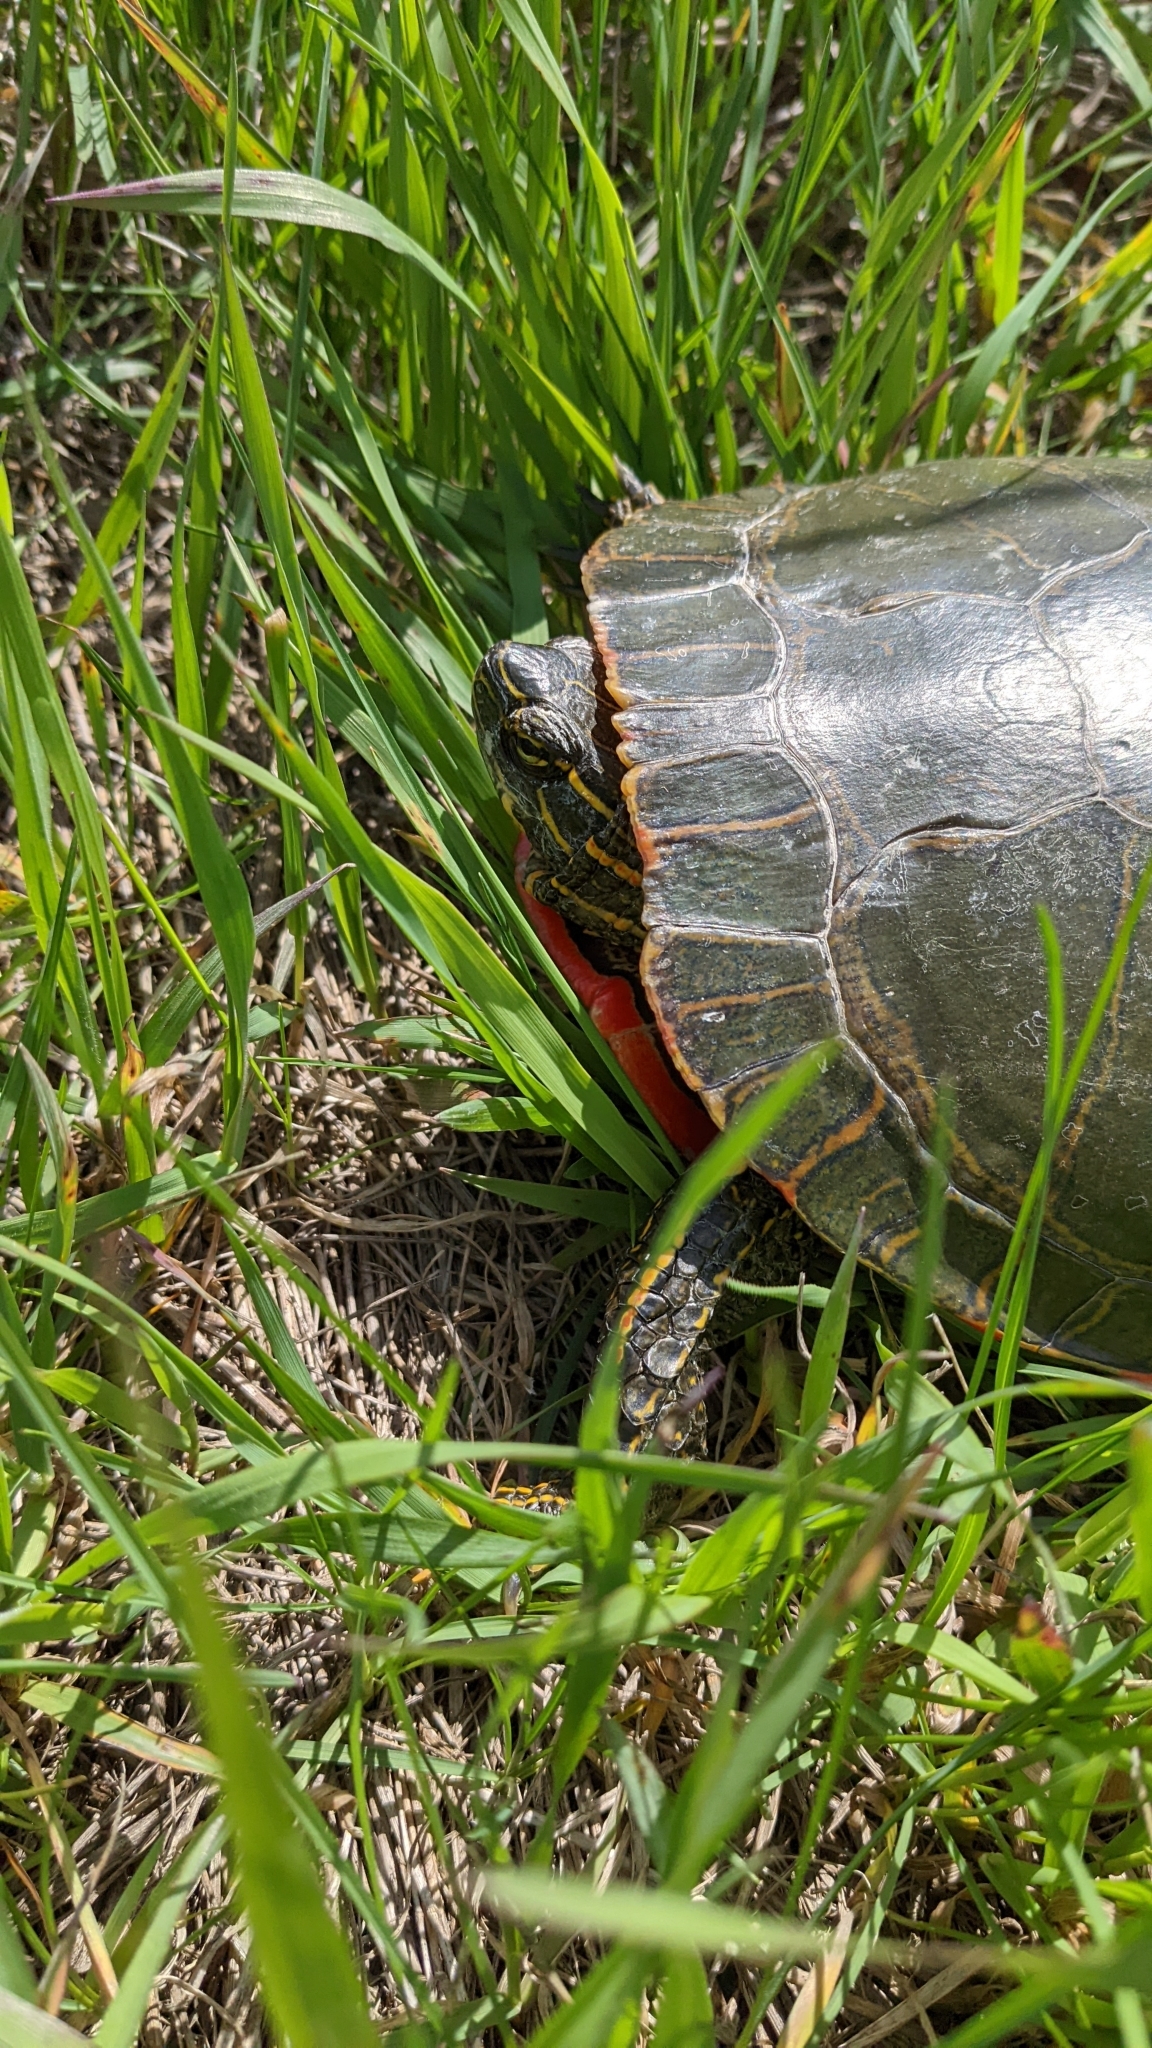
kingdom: Animalia
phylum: Chordata
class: Testudines
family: Emydidae
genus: Chrysemys
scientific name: Chrysemys picta
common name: Painted turtle
